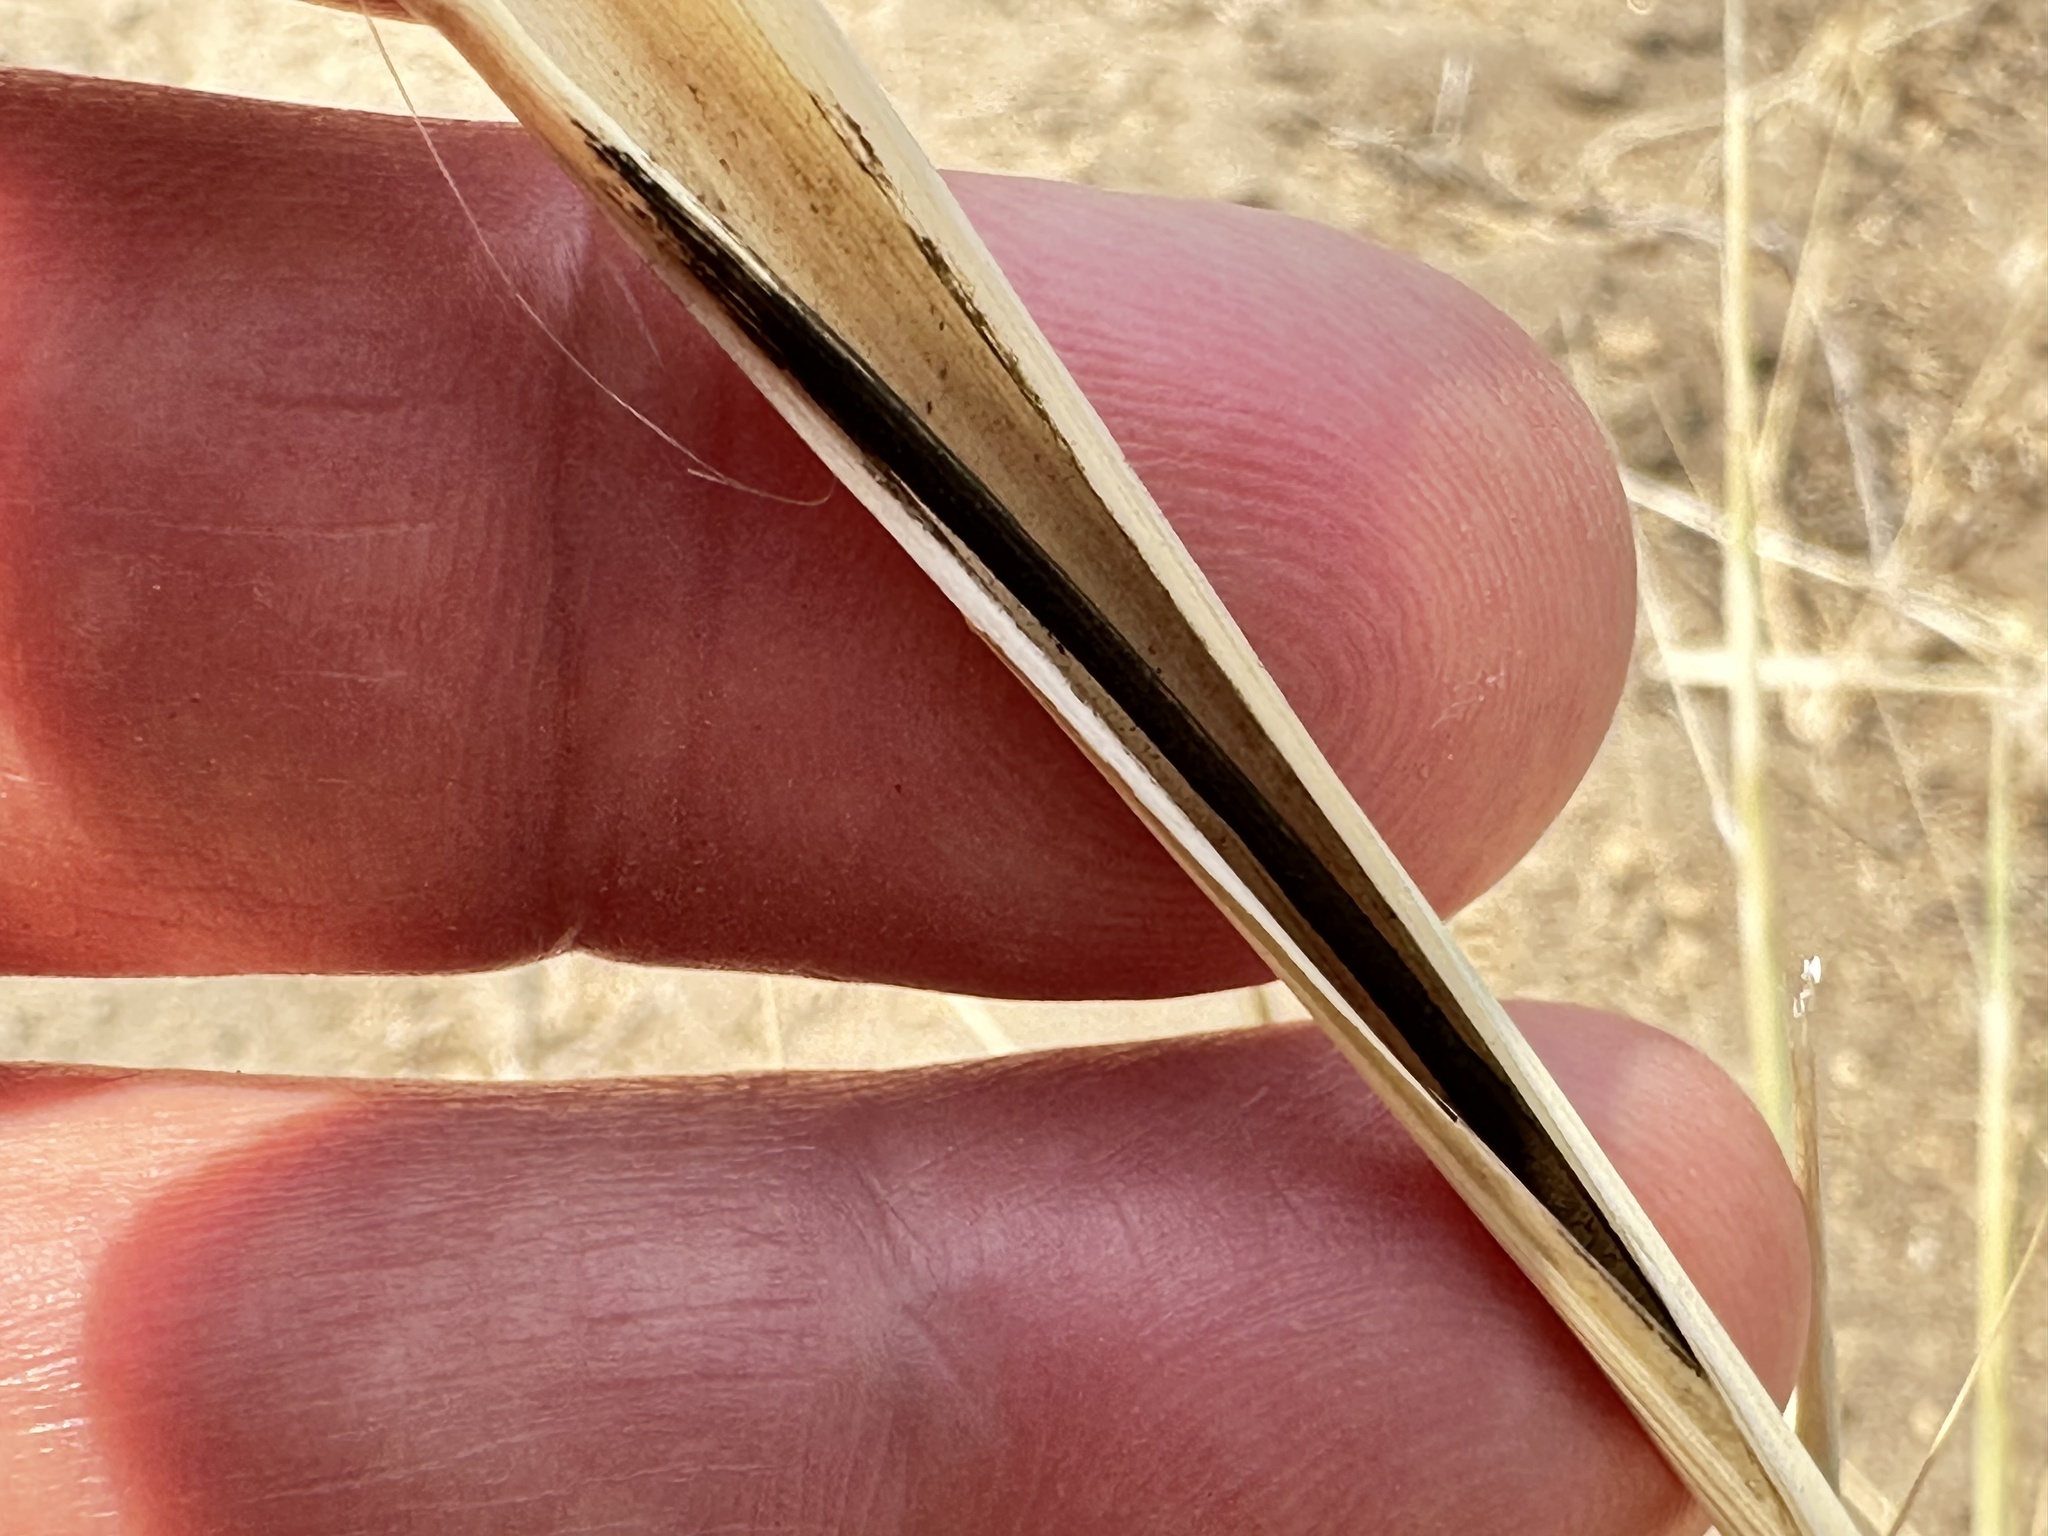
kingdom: Plantae
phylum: Tracheophyta
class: Liliopsida
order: Poales
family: Poaceae
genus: Hesperostipa
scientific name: Hesperostipa comata
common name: Needle-and-thread grass
